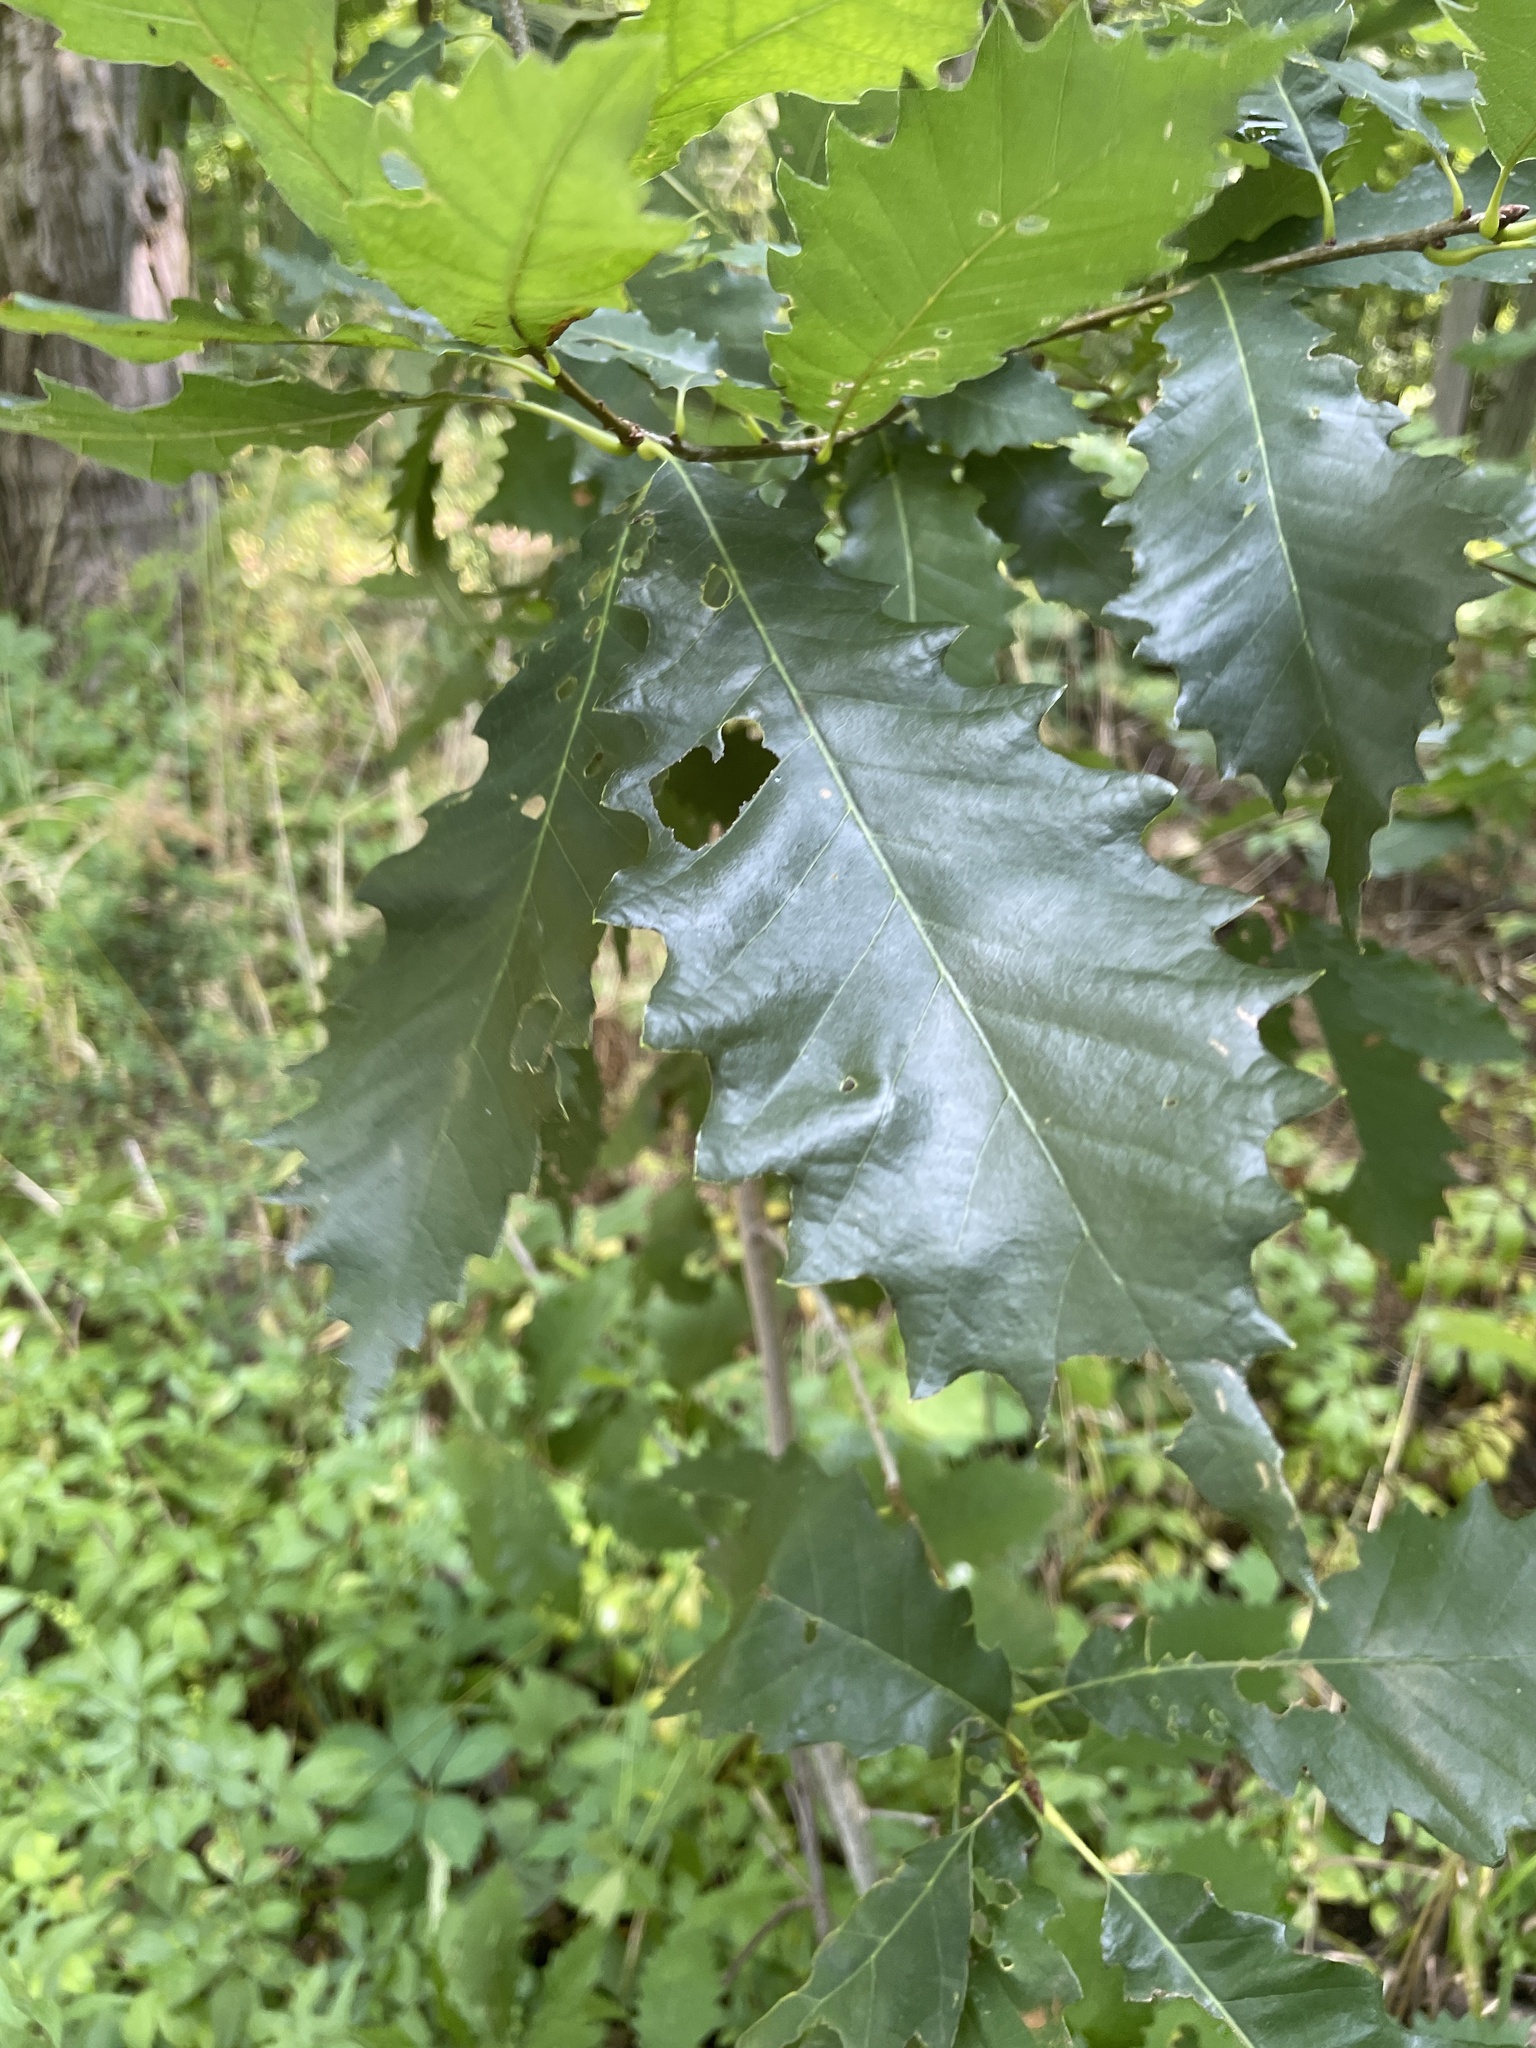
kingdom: Plantae
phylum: Tracheophyta
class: Magnoliopsida
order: Fagales
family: Fagaceae
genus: Quercus
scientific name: Quercus muehlenbergii
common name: Chinkapin oak
